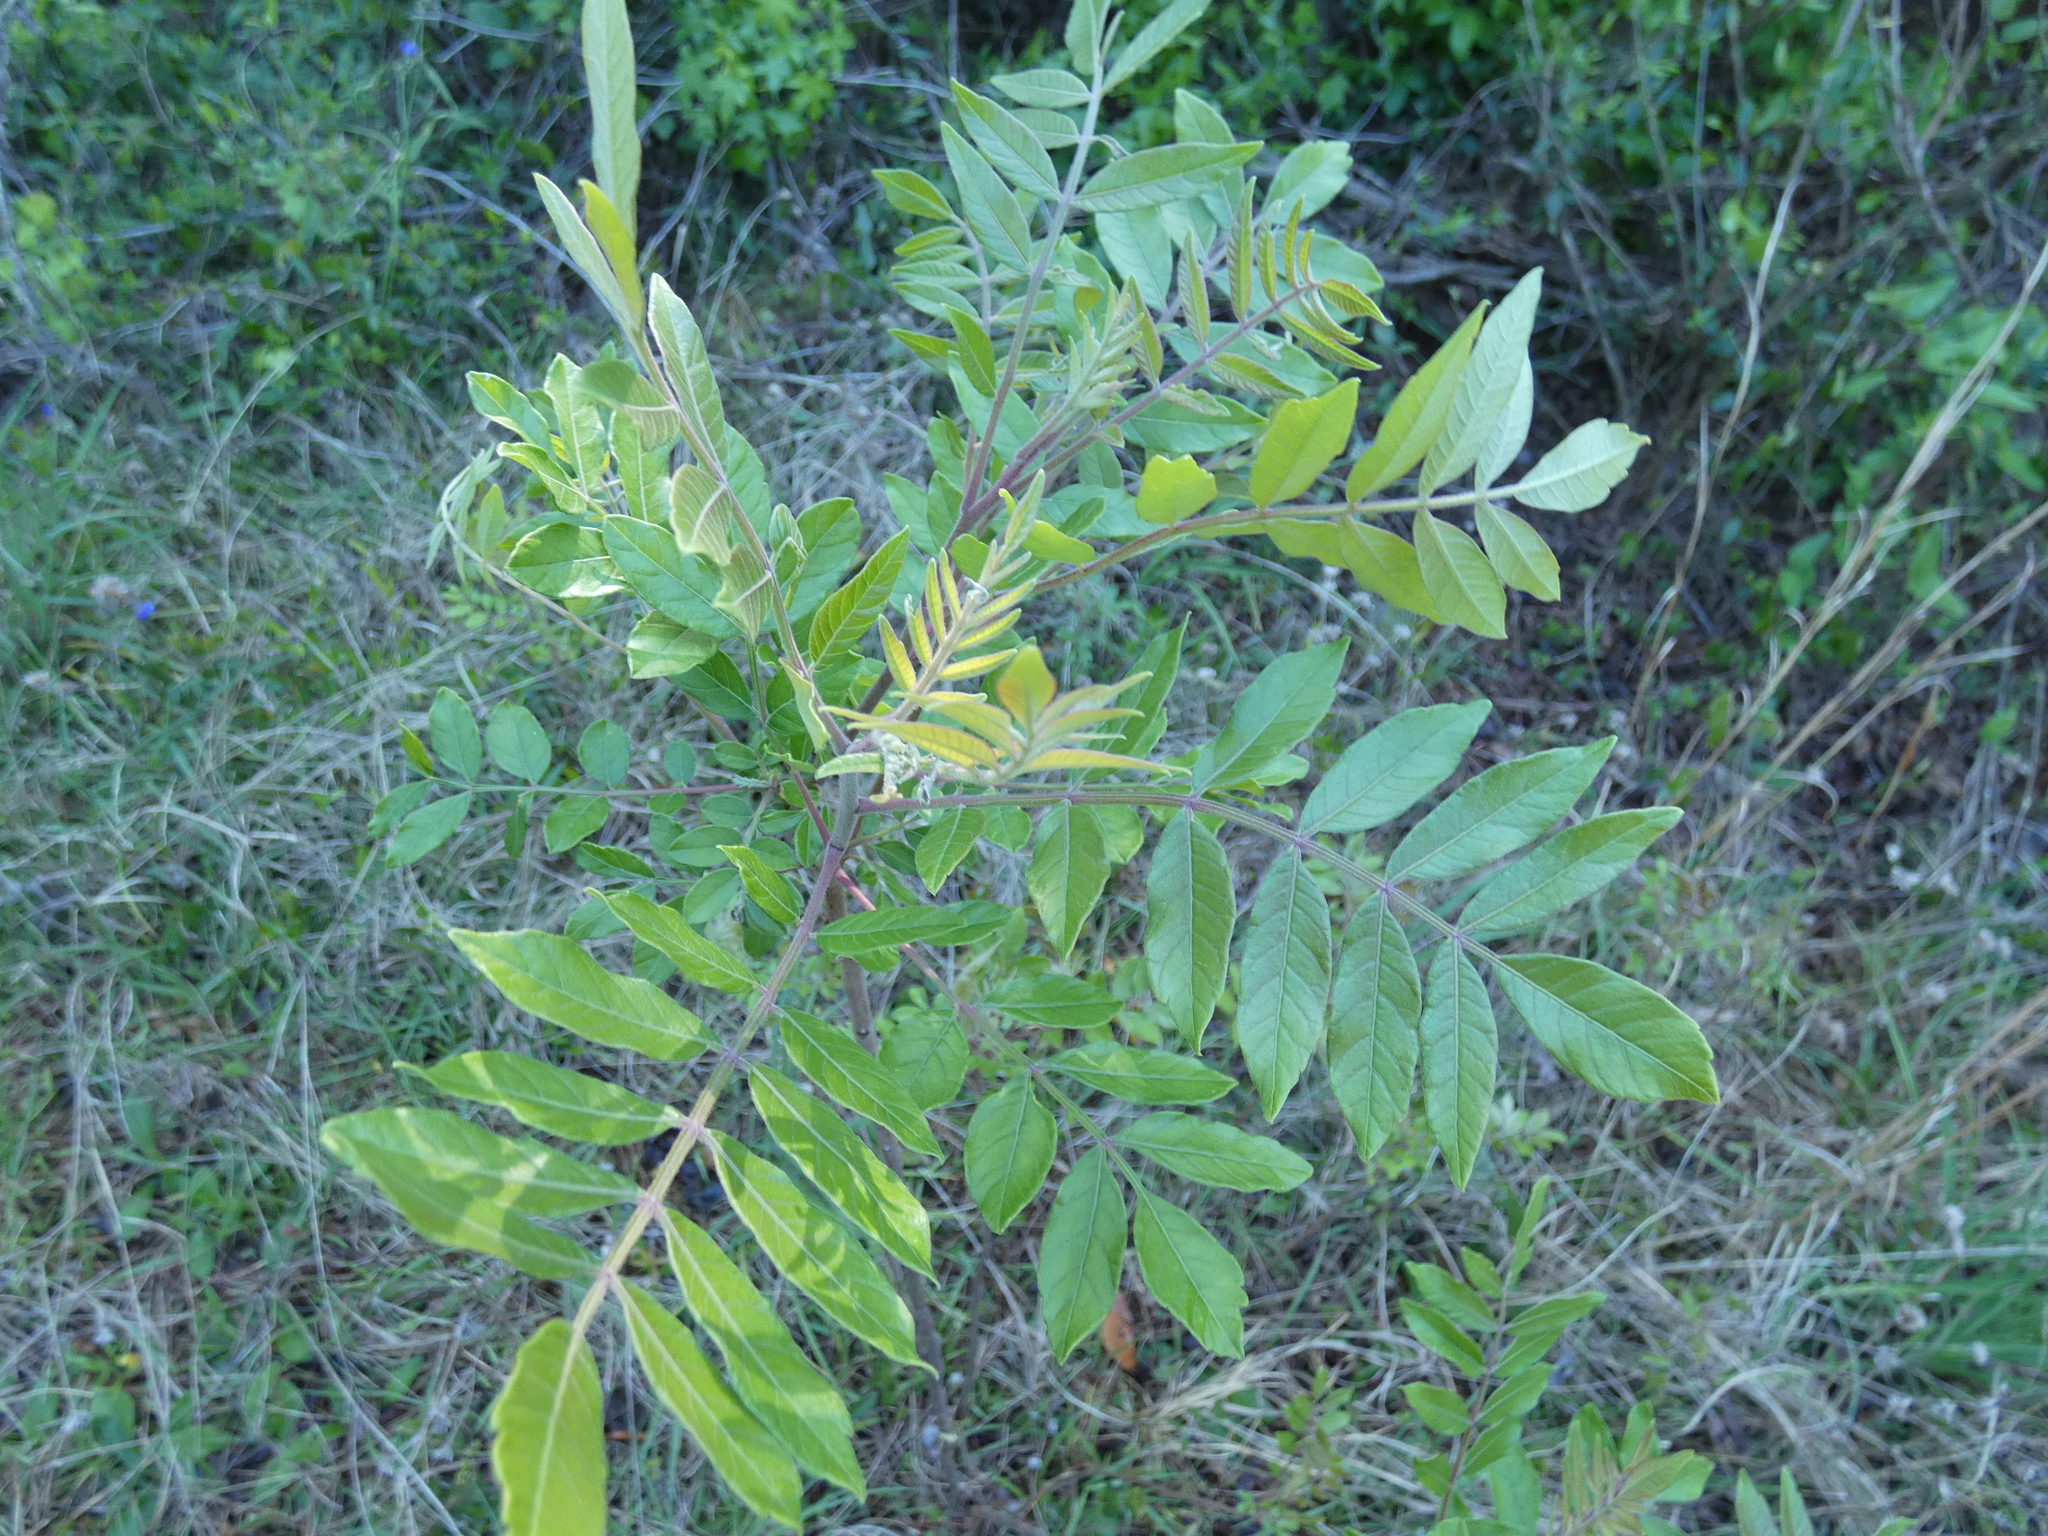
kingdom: Plantae
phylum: Tracheophyta
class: Magnoliopsida
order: Sapindales
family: Anacardiaceae
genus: Rhus
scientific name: Rhus copallina
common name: Shining sumac
